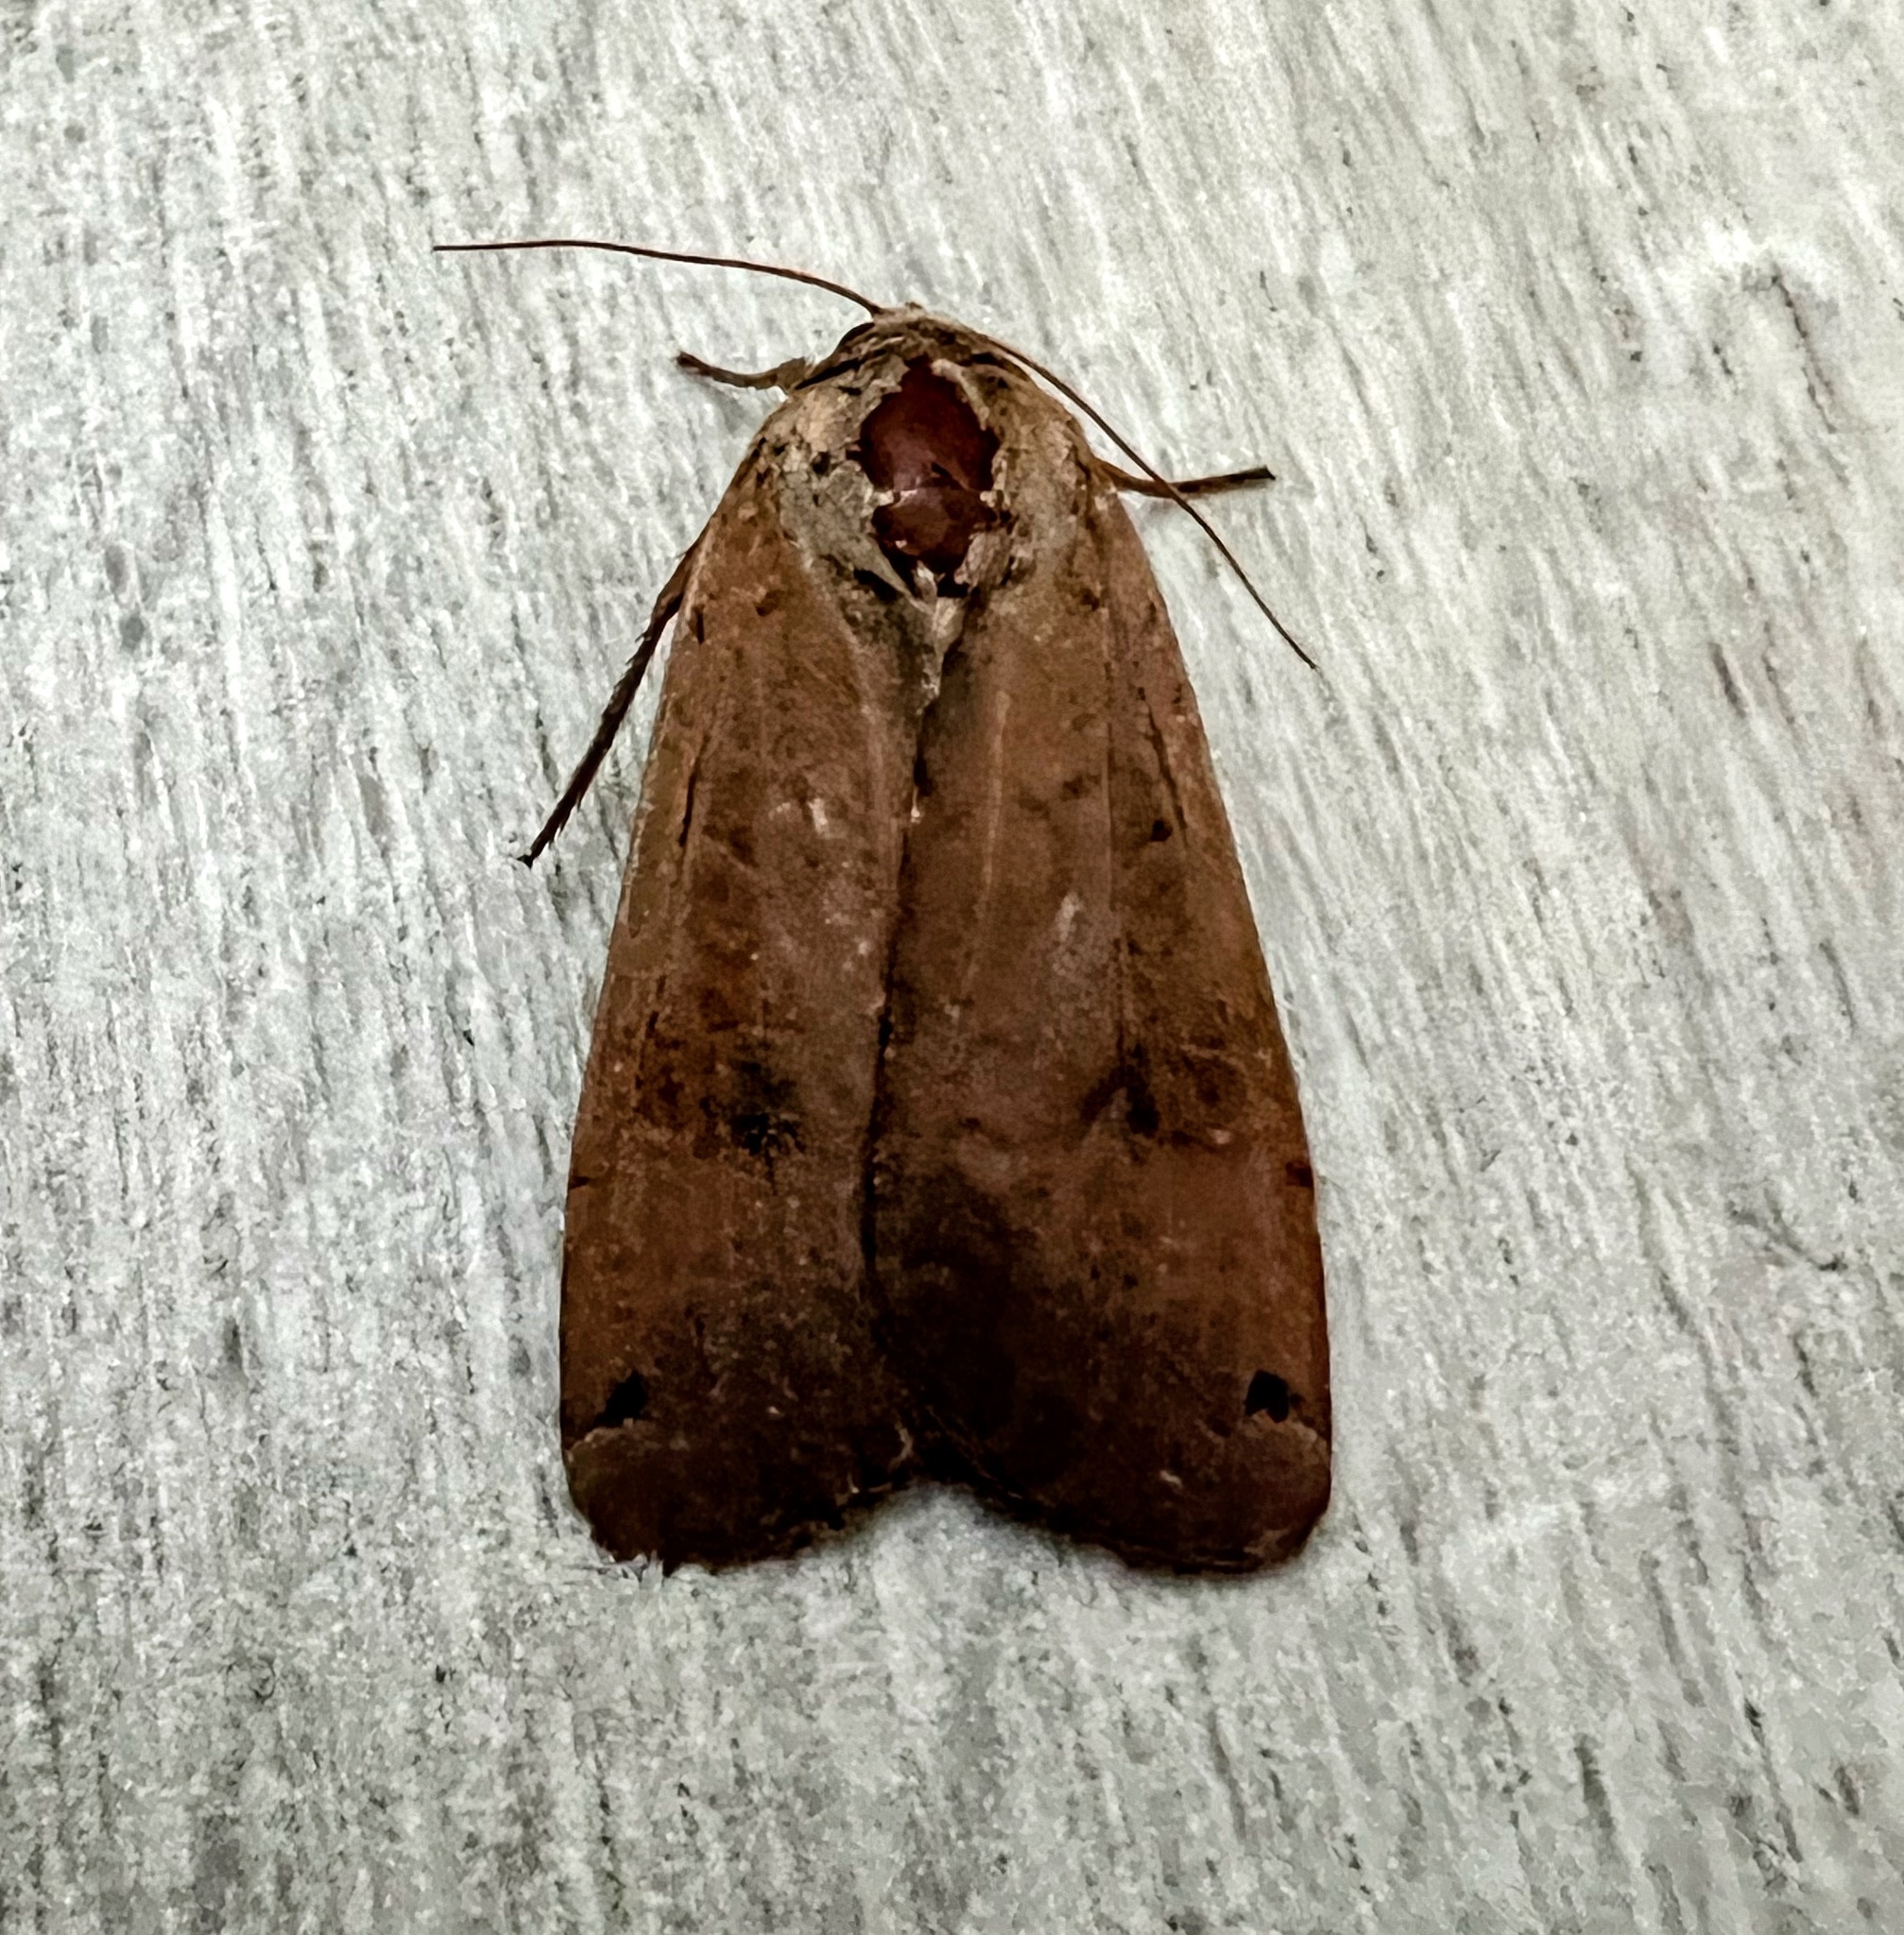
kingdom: Animalia
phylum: Arthropoda
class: Insecta
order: Lepidoptera
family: Noctuidae
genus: Noctua
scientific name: Noctua pronuba
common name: Large yellow underwing
